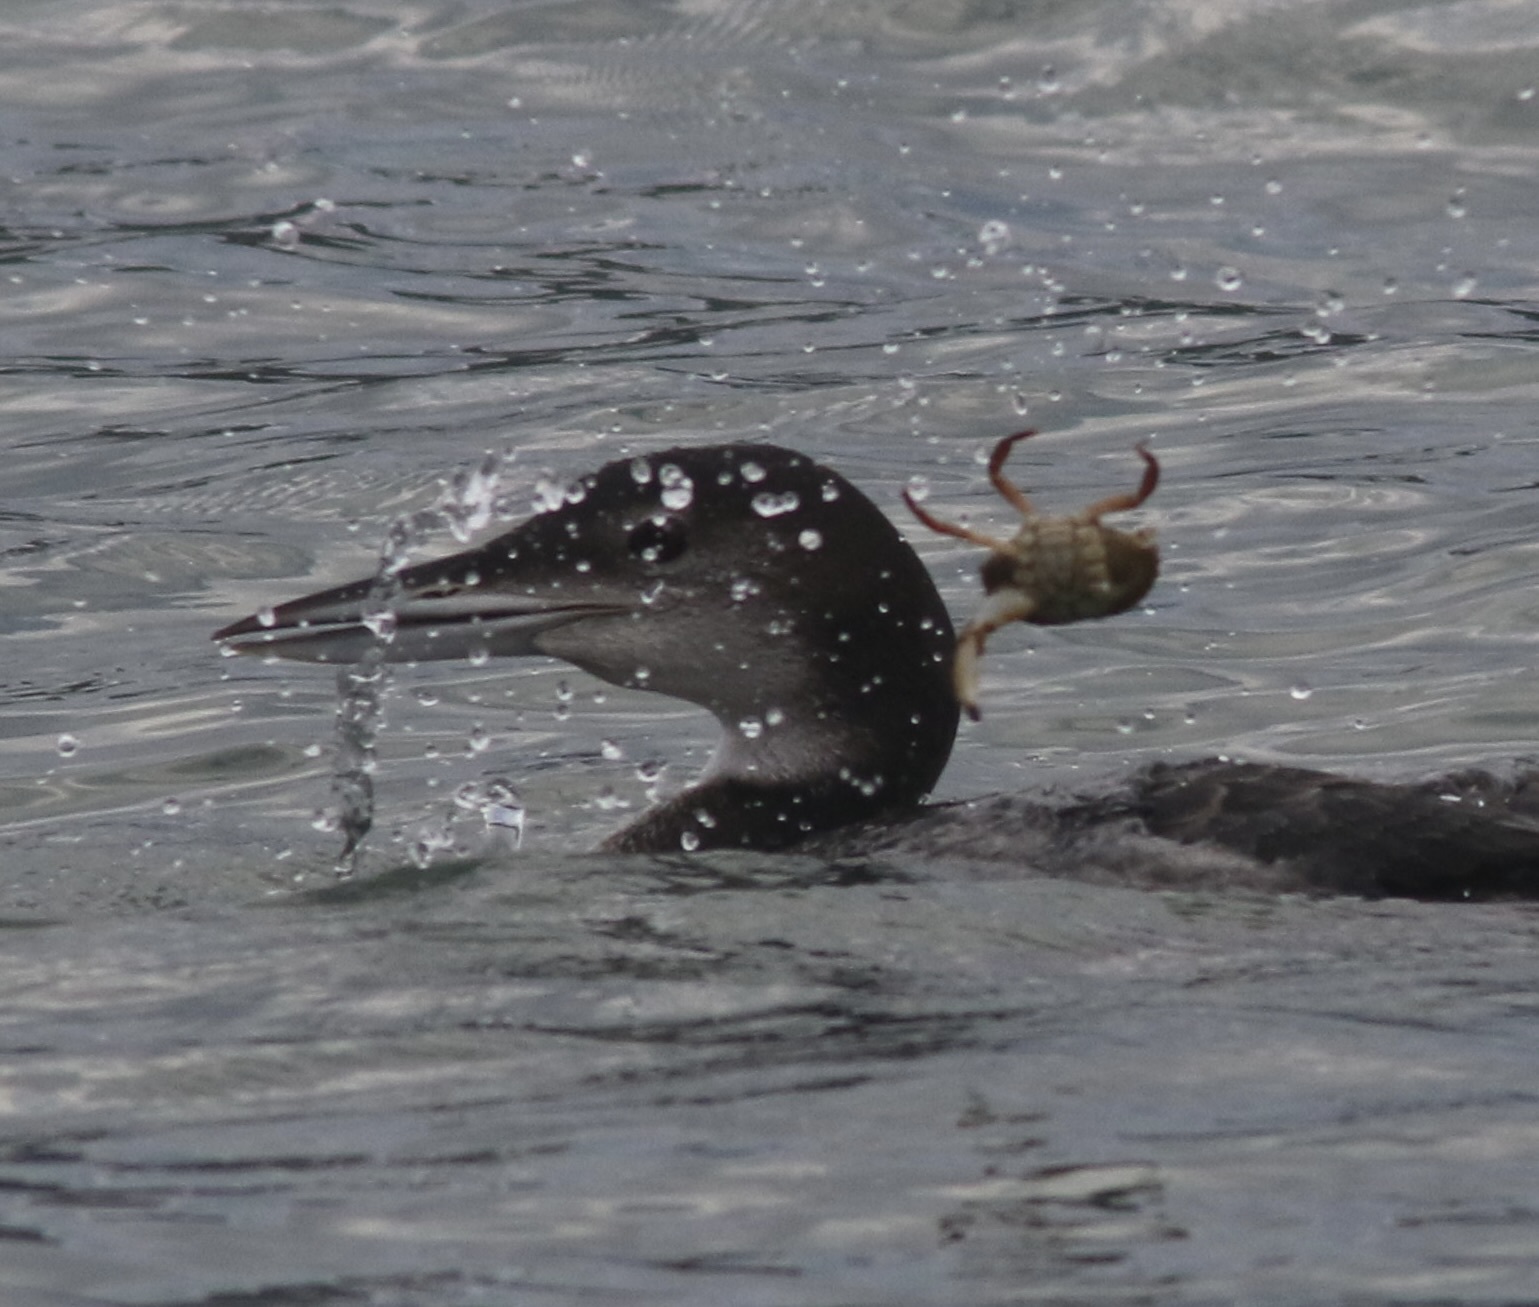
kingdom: Animalia
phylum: Arthropoda
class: Malacostraca
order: Decapoda
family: Cancridae
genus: Metacarcinus
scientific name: Metacarcinus anthonyi
